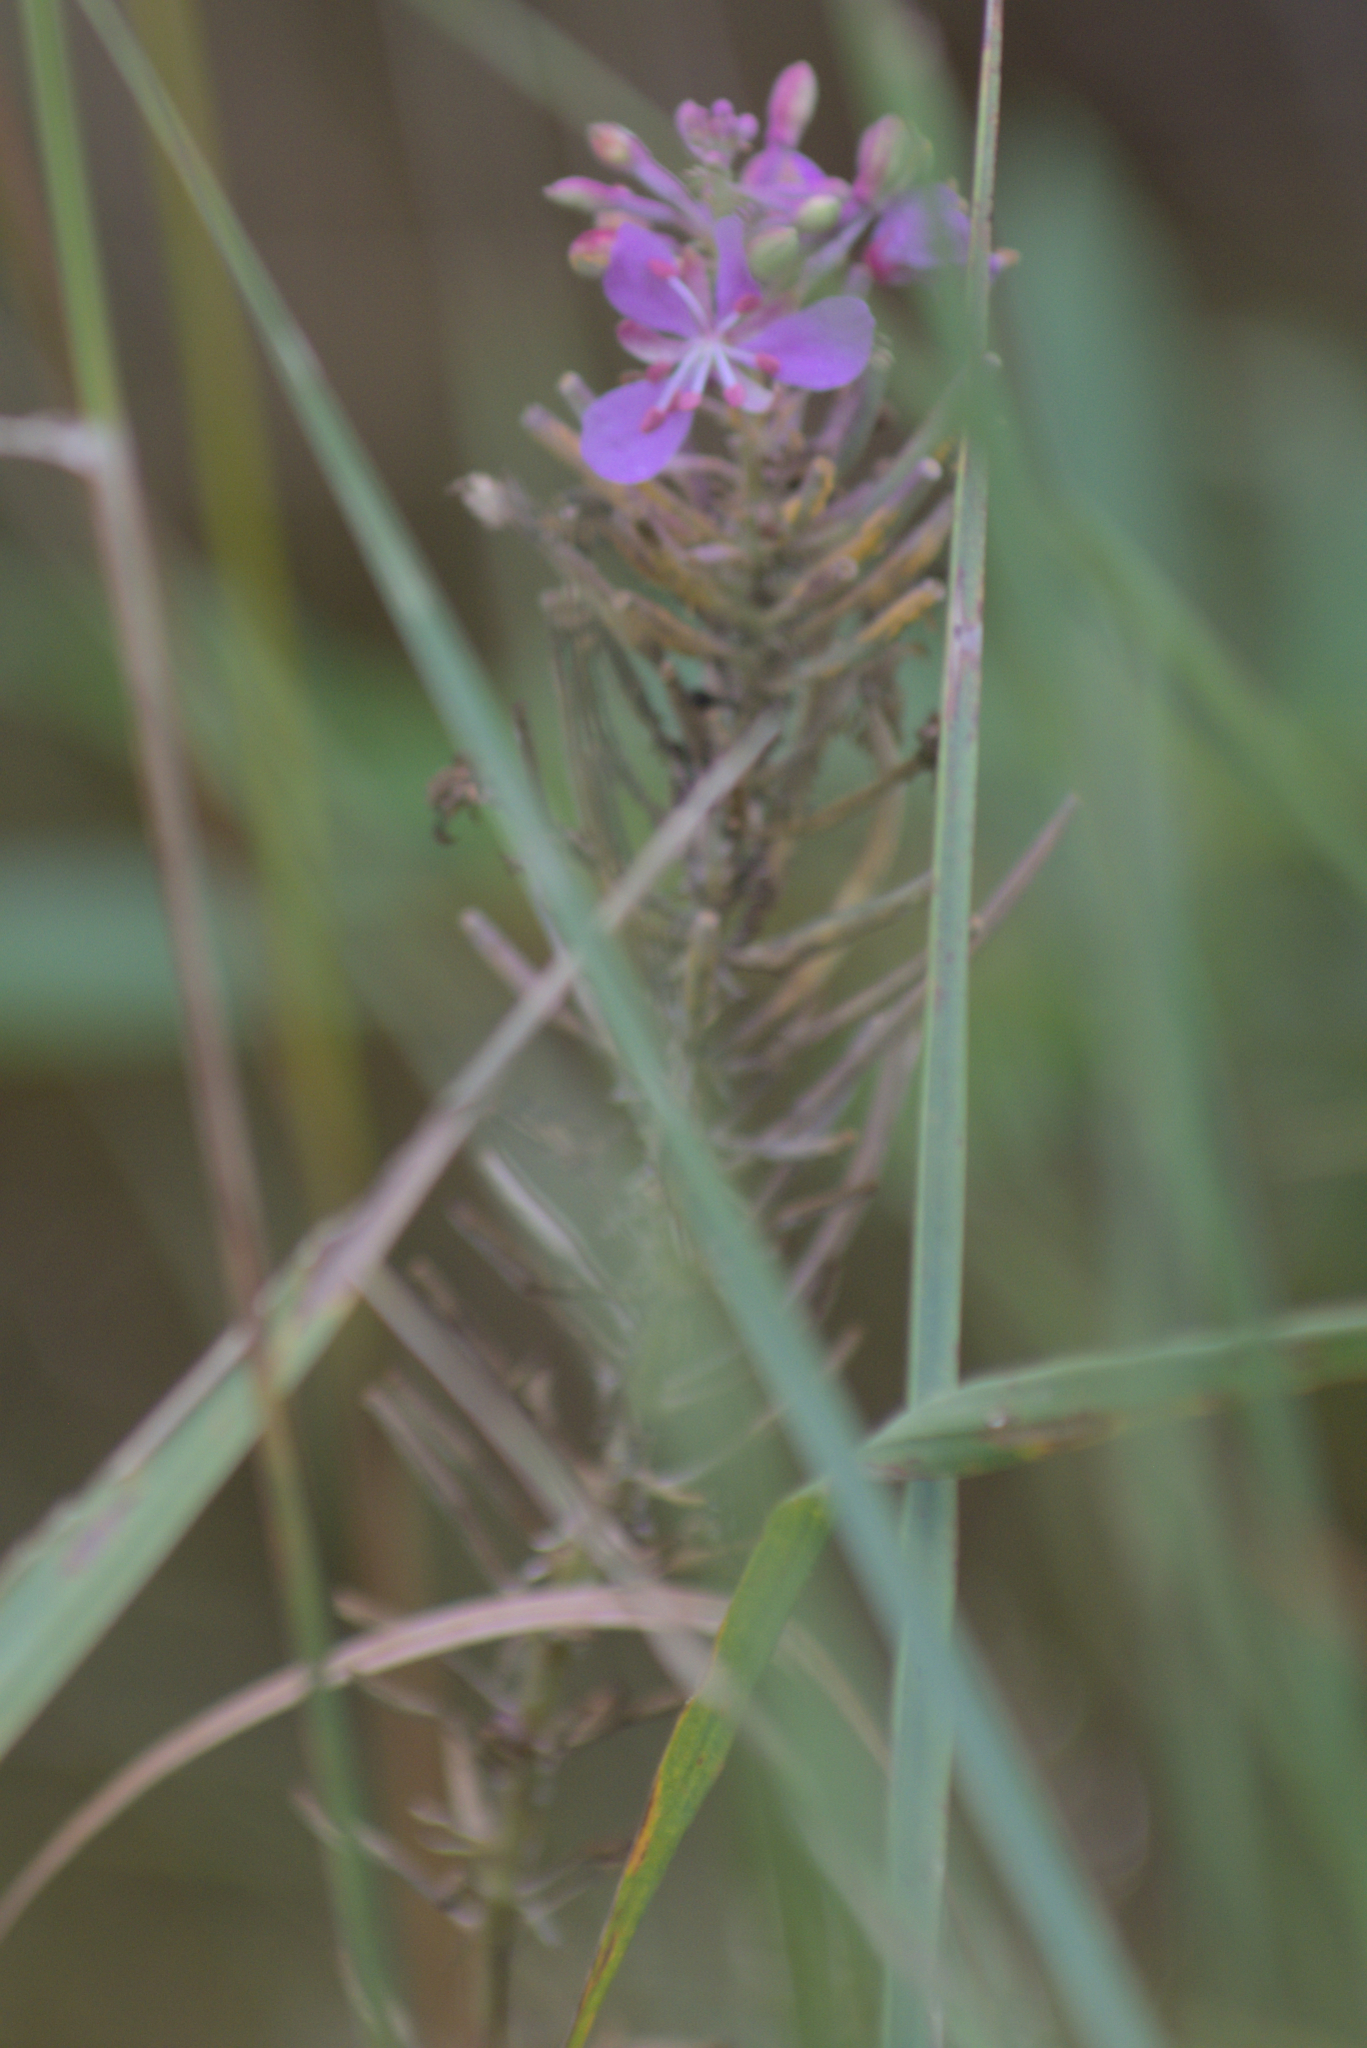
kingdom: Plantae
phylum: Tracheophyta
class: Magnoliopsida
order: Myrtales
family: Onagraceae
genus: Chamaenerion
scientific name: Chamaenerion angustifolium
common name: Fireweed
